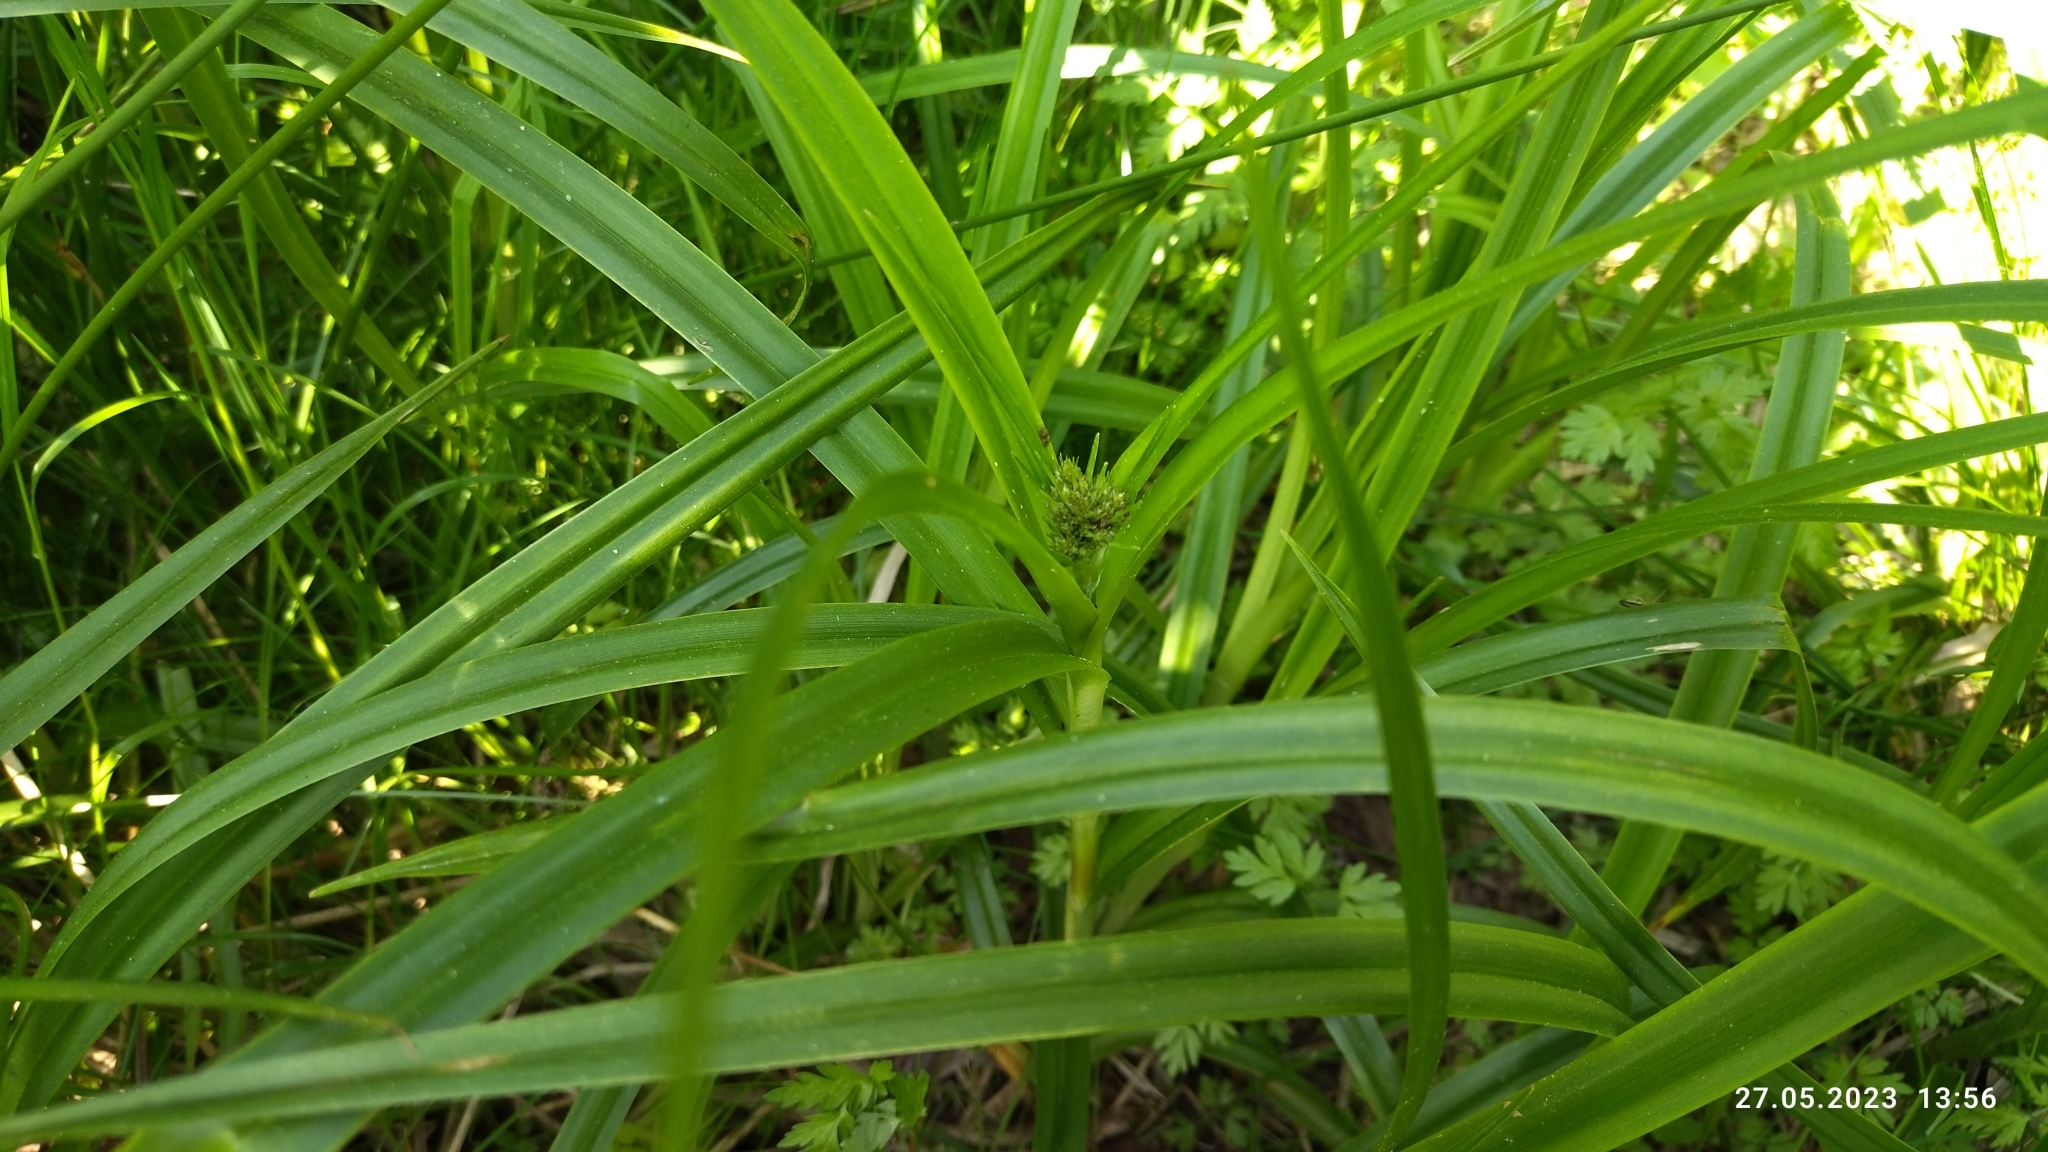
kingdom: Plantae
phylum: Tracheophyta
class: Liliopsida
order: Poales
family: Cyperaceae
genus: Scirpus
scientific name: Scirpus sylvaticus
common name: Wood club-rush
